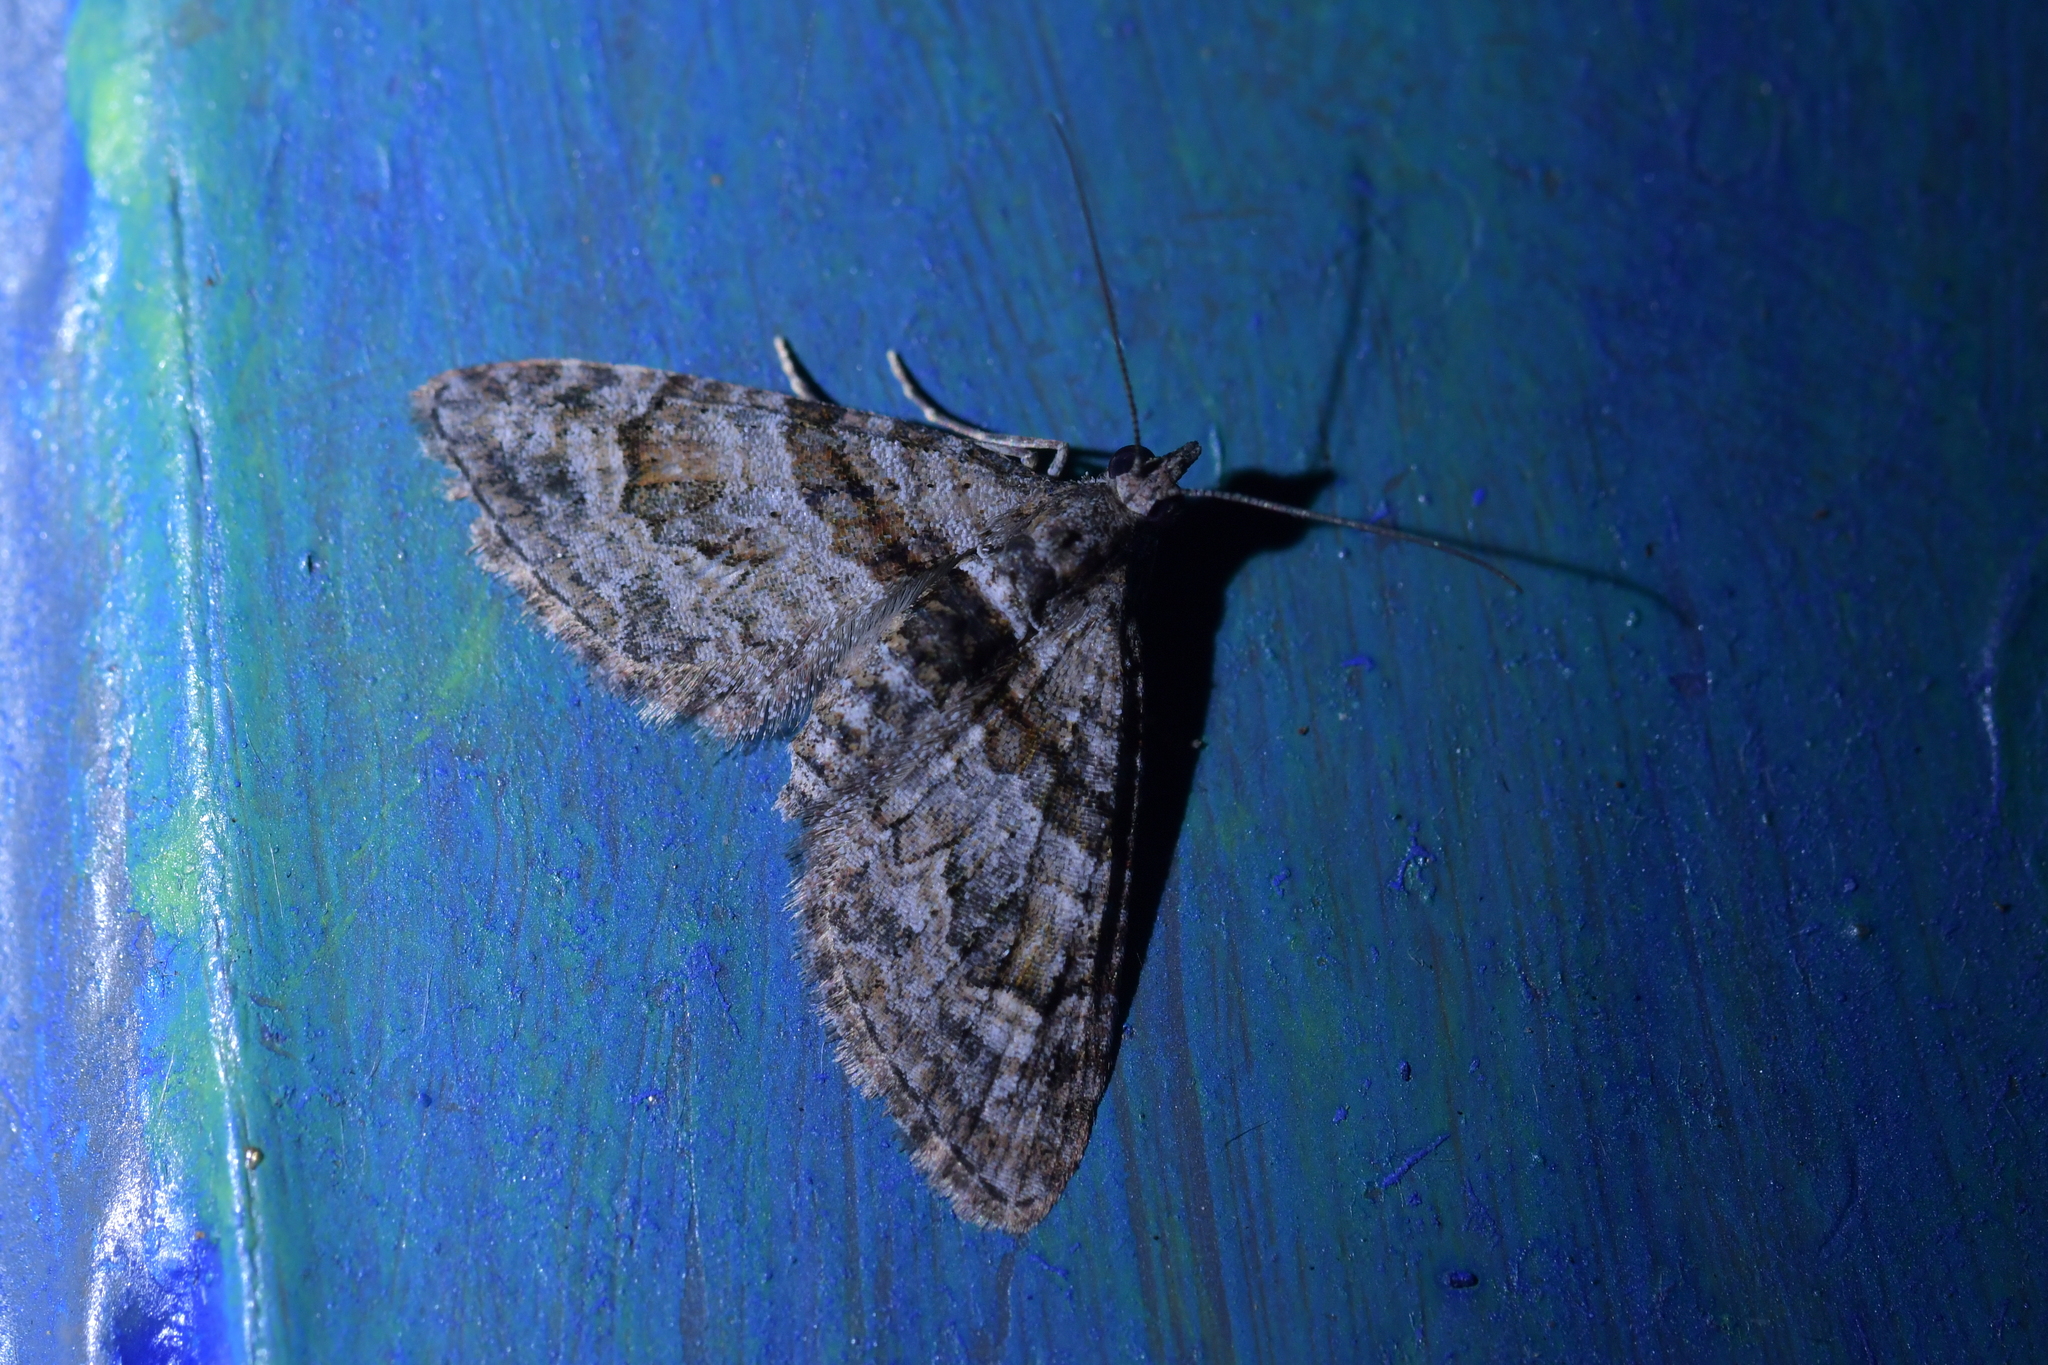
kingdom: Animalia
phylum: Arthropoda
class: Insecta
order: Lepidoptera
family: Geometridae
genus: Phrissogonus
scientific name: Phrissogonus laticostata
